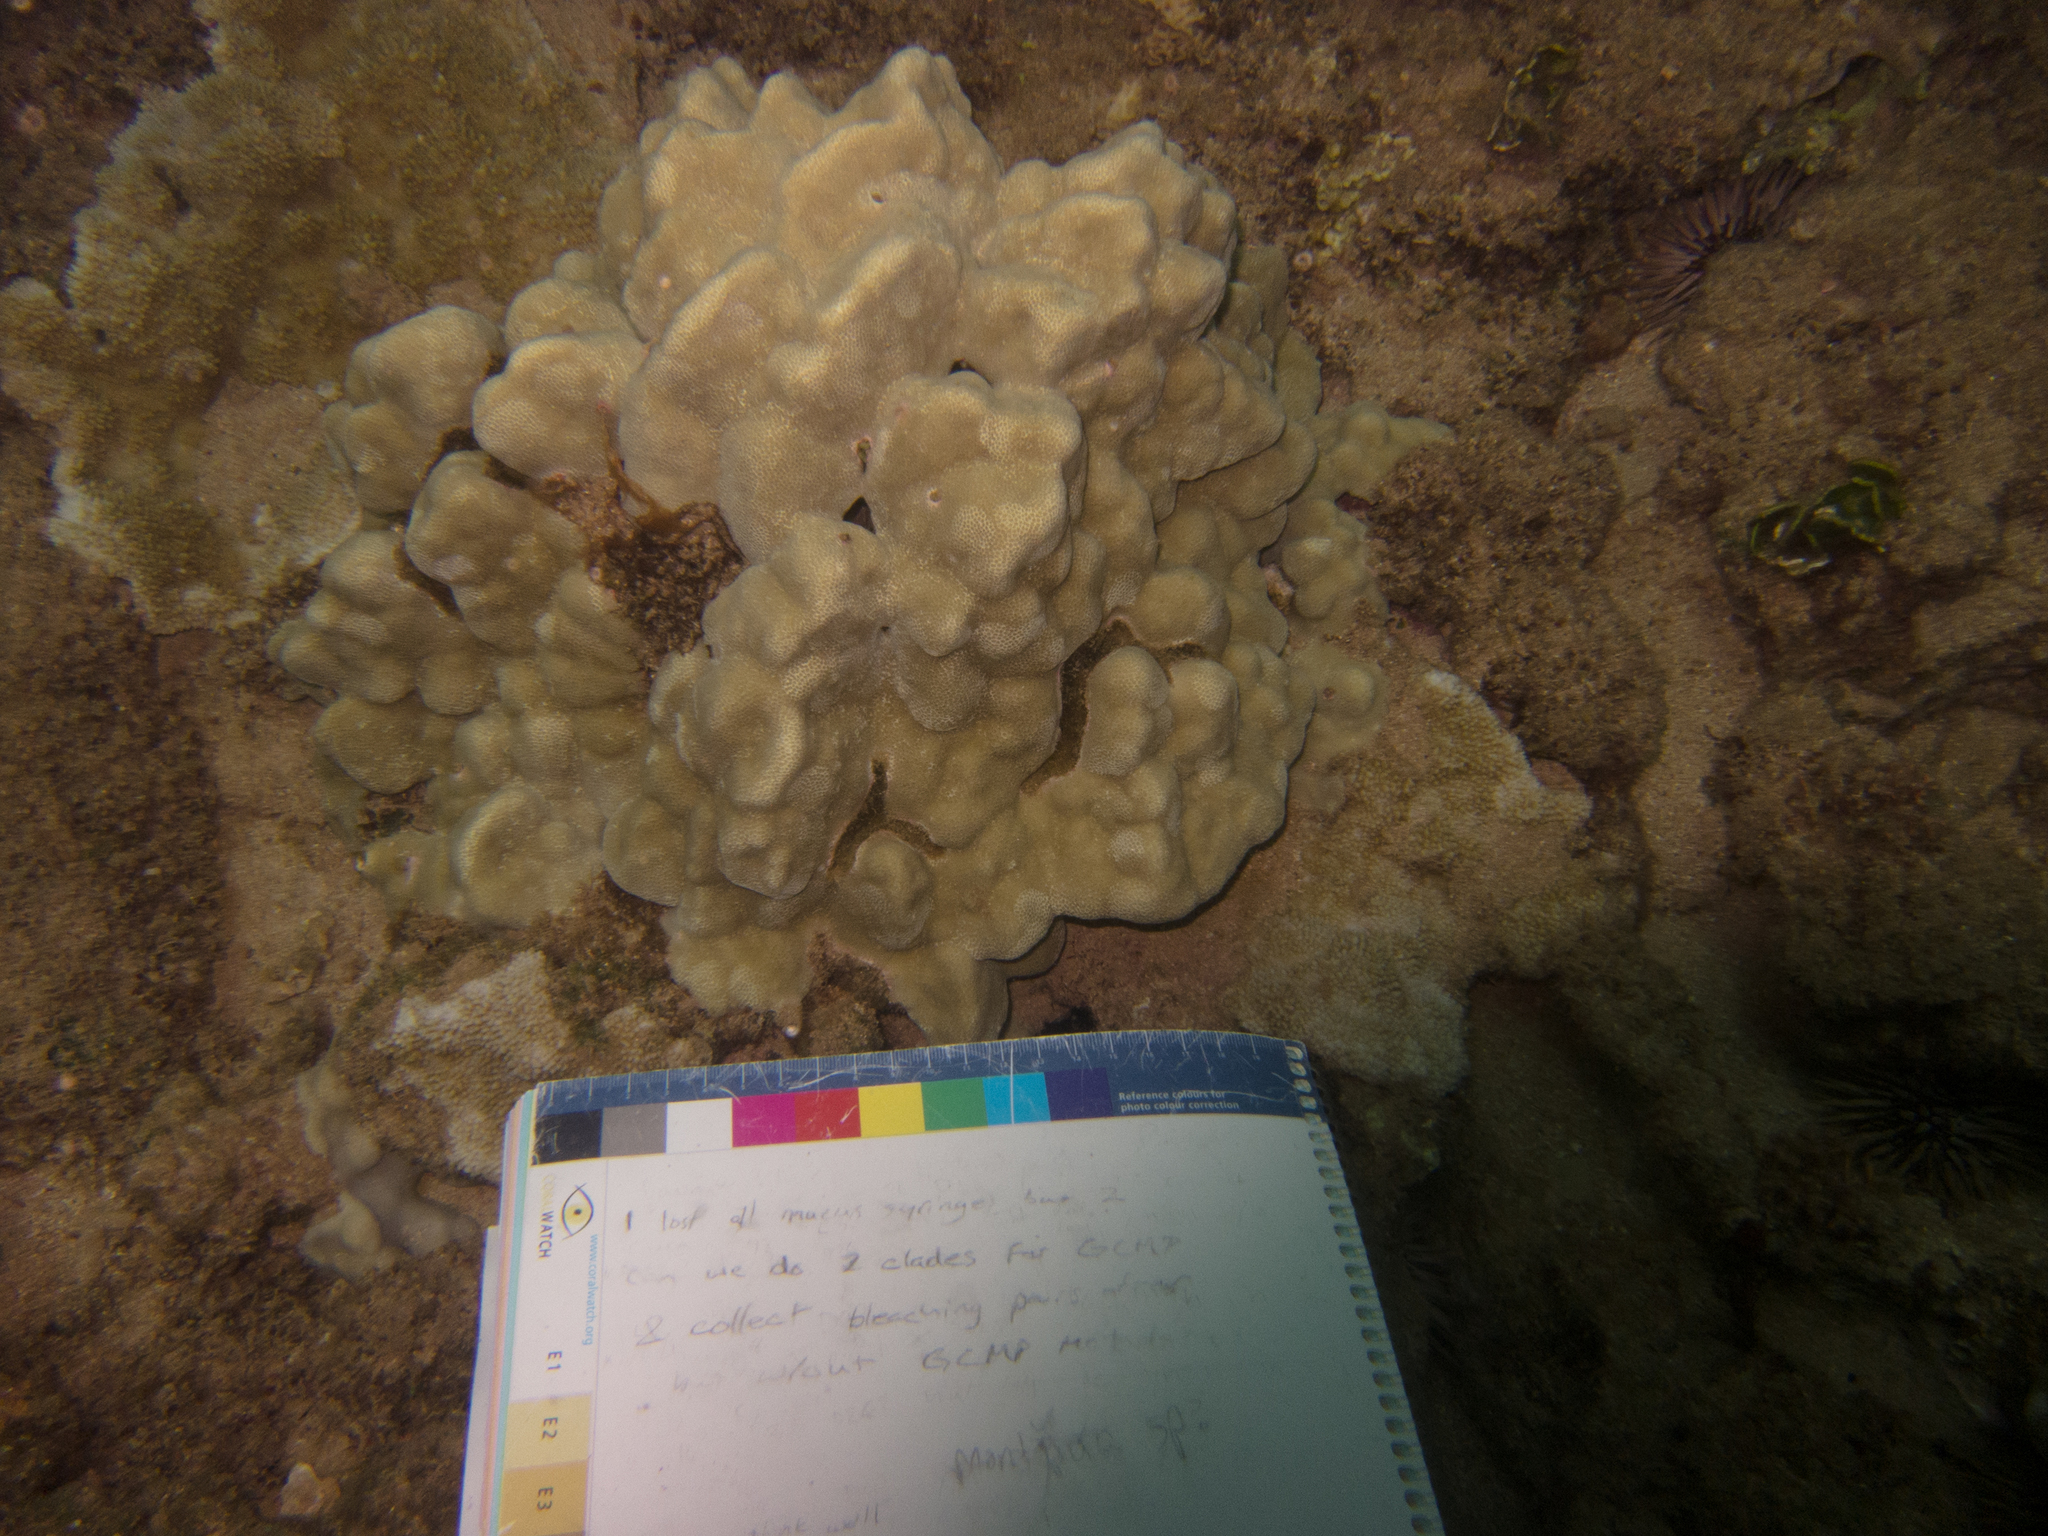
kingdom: Animalia
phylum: Cnidaria
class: Anthozoa
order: Scleractinia
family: Poritidae
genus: Porites
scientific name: Porites evermanni
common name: Hump coral
